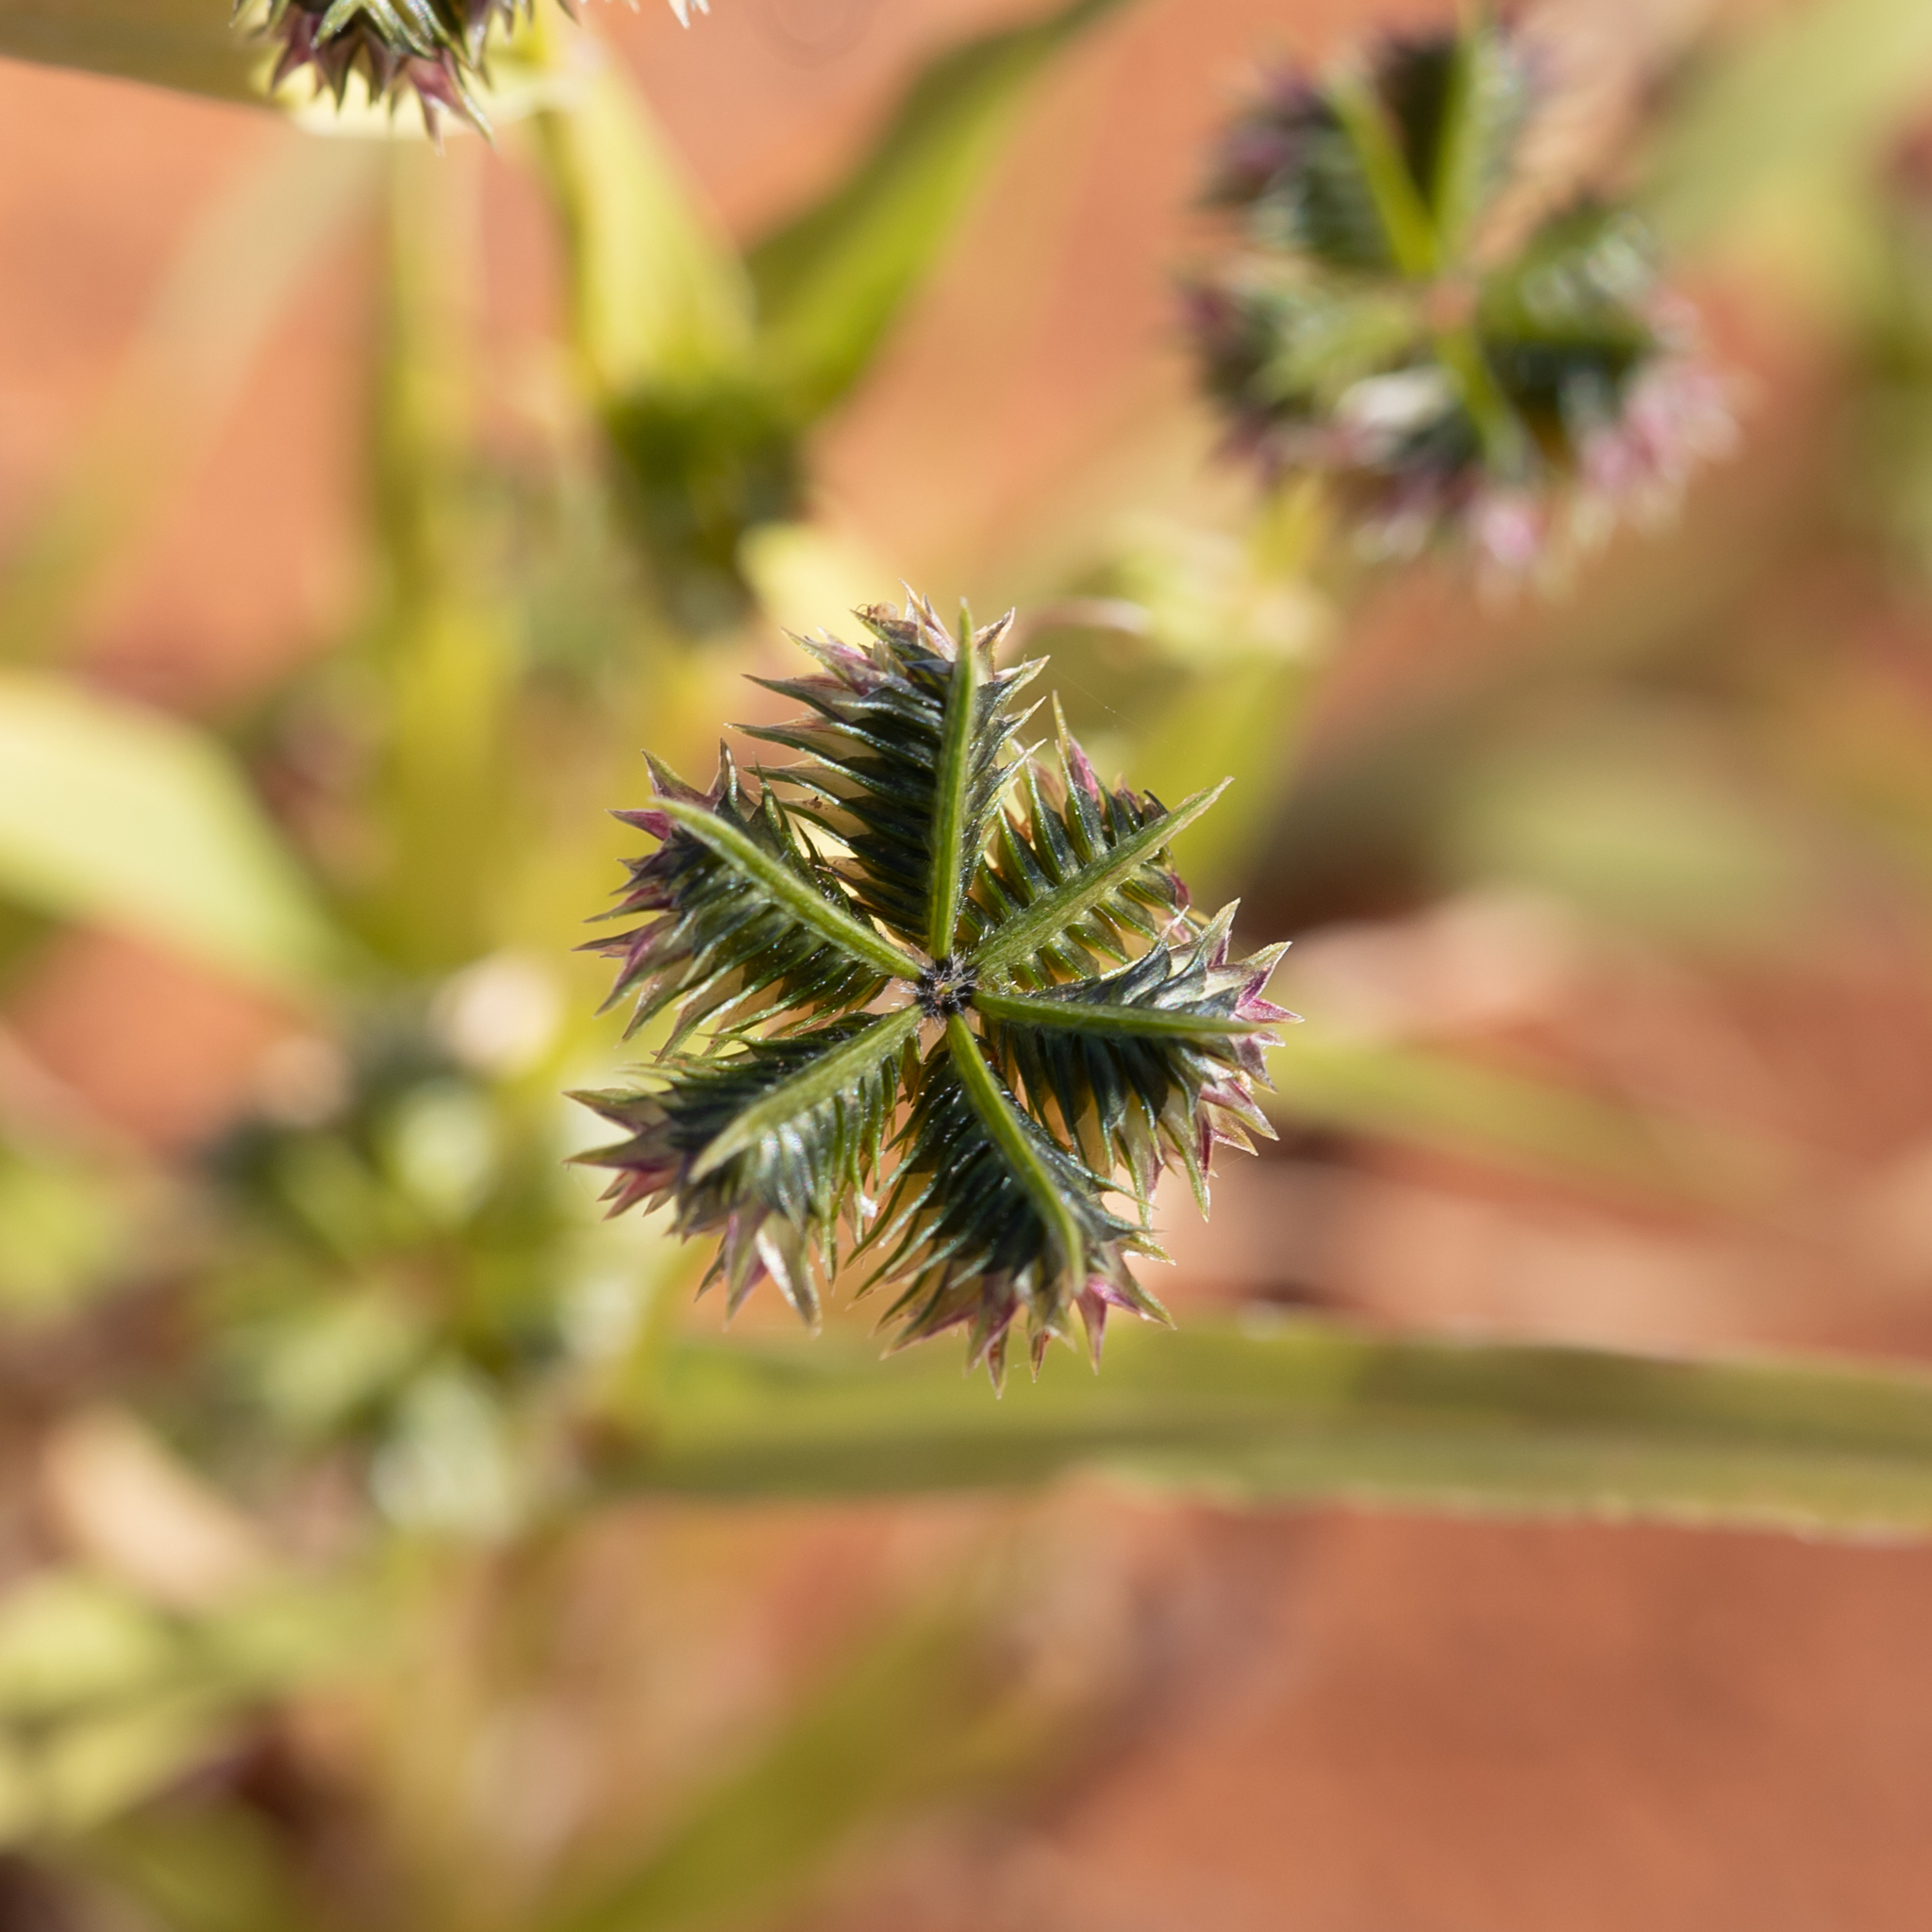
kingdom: Plantae
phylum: Tracheophyta
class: Liliopsida
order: Poales
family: Poaceae
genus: Dactyloctenium
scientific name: Dactyloctenium radulans
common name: Button-grass
